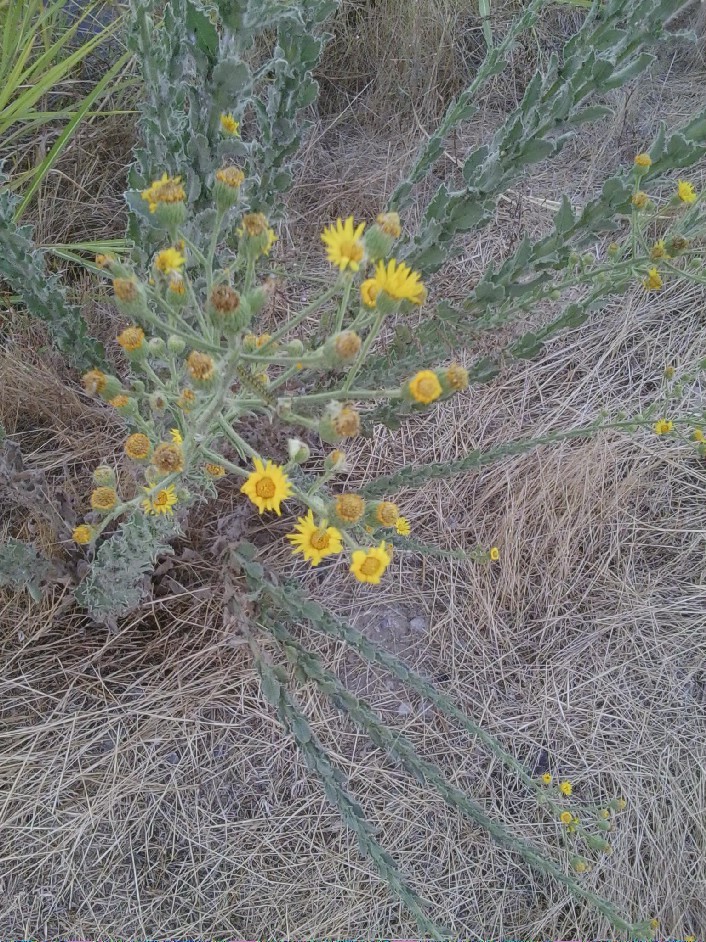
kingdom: Plantae
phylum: Tracheophyta
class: Magnoliopsida
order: Asterales
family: Asteraceae
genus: Heterotheca
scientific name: Heterotheca grandiflora
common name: Telegraphweed
